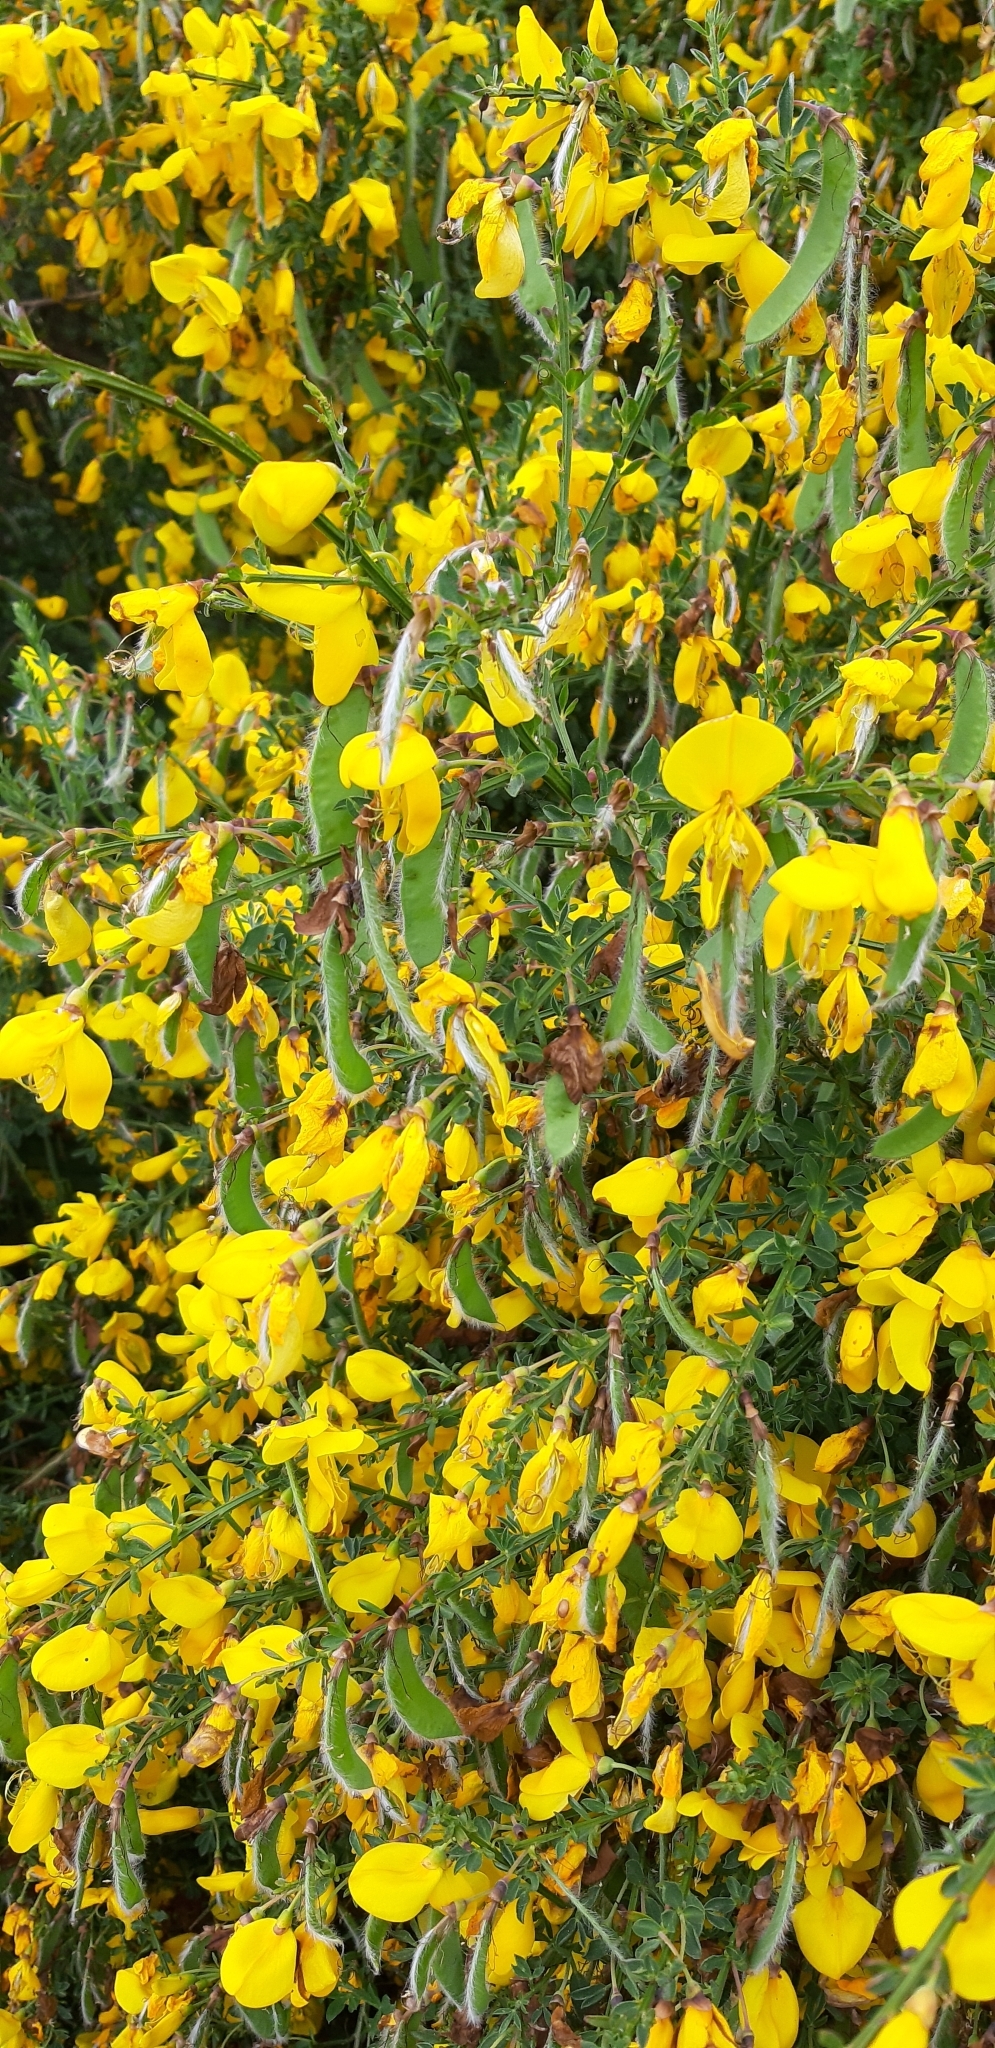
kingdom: Plantae
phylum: Tracheophyta
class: Magnoliopsida
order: Fabales
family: Fabaceae
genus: Cytisus
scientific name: Cytisus scoparius
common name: Scotch broom
